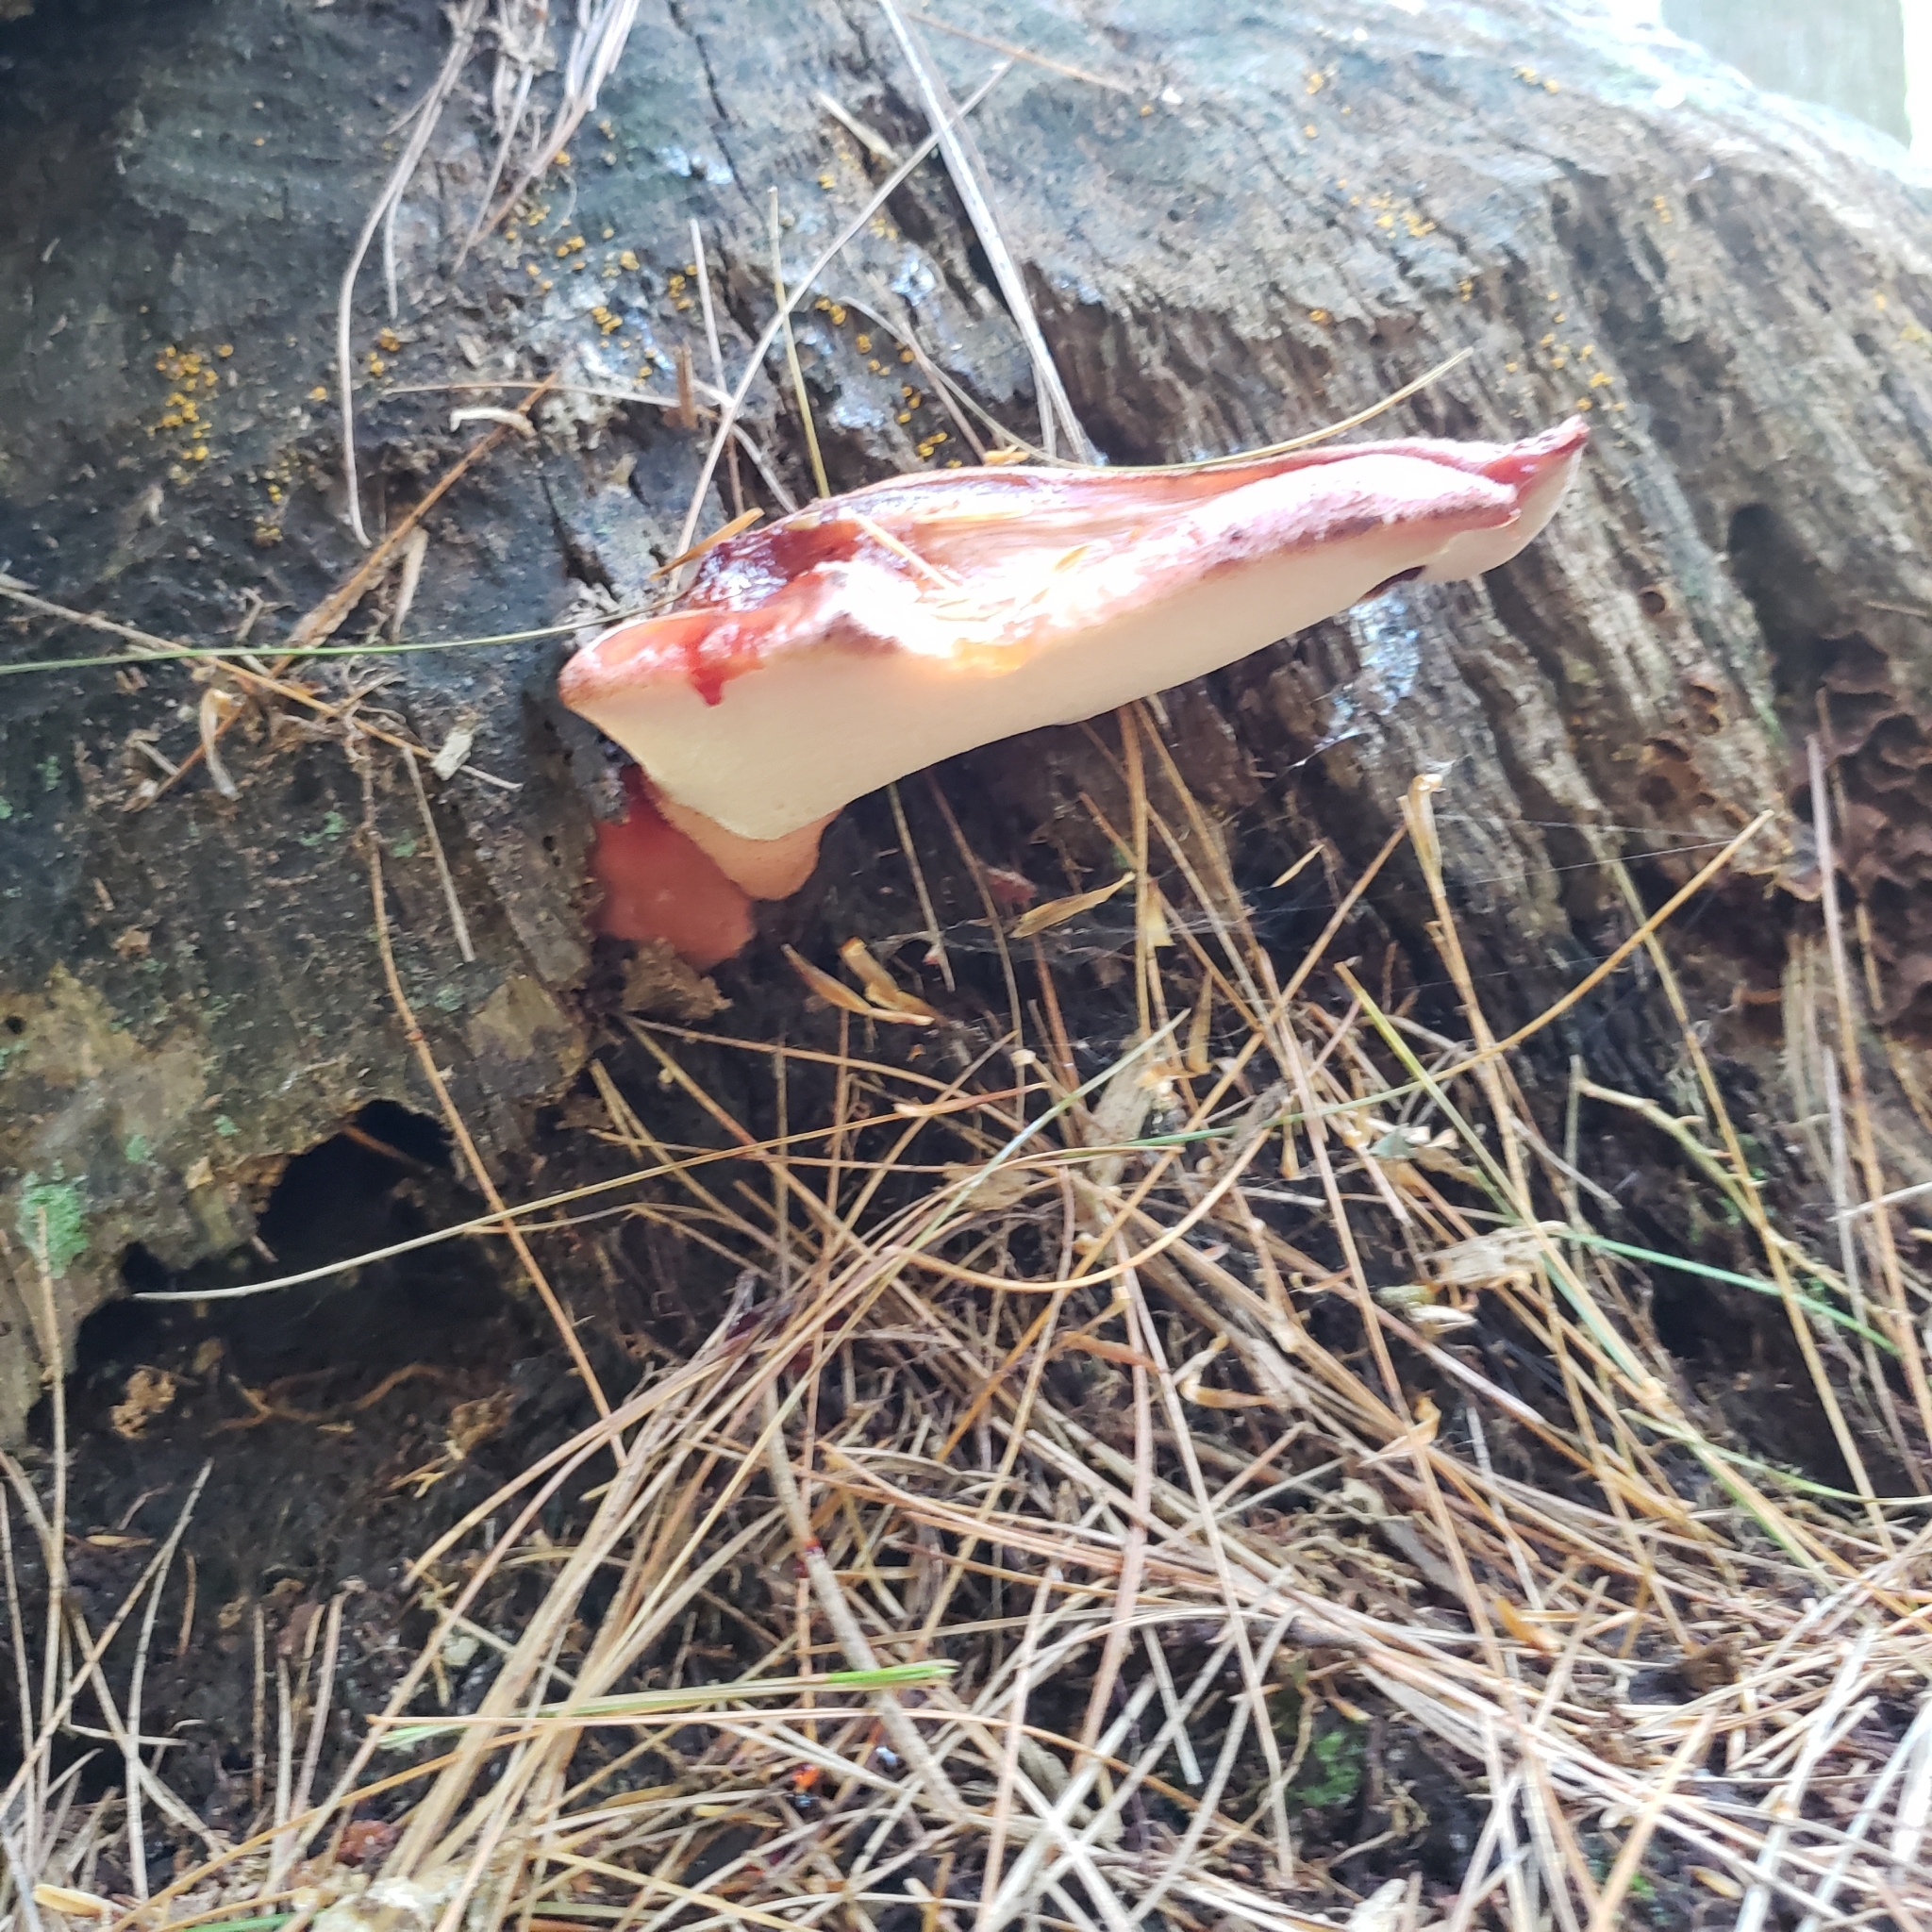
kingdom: Fungi
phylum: Basidiomycota
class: Agaricomycetes
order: Agaricales
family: Fistulinaceae
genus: Fistulina
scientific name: Fistulina hepatica
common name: Beef-steak fungus
